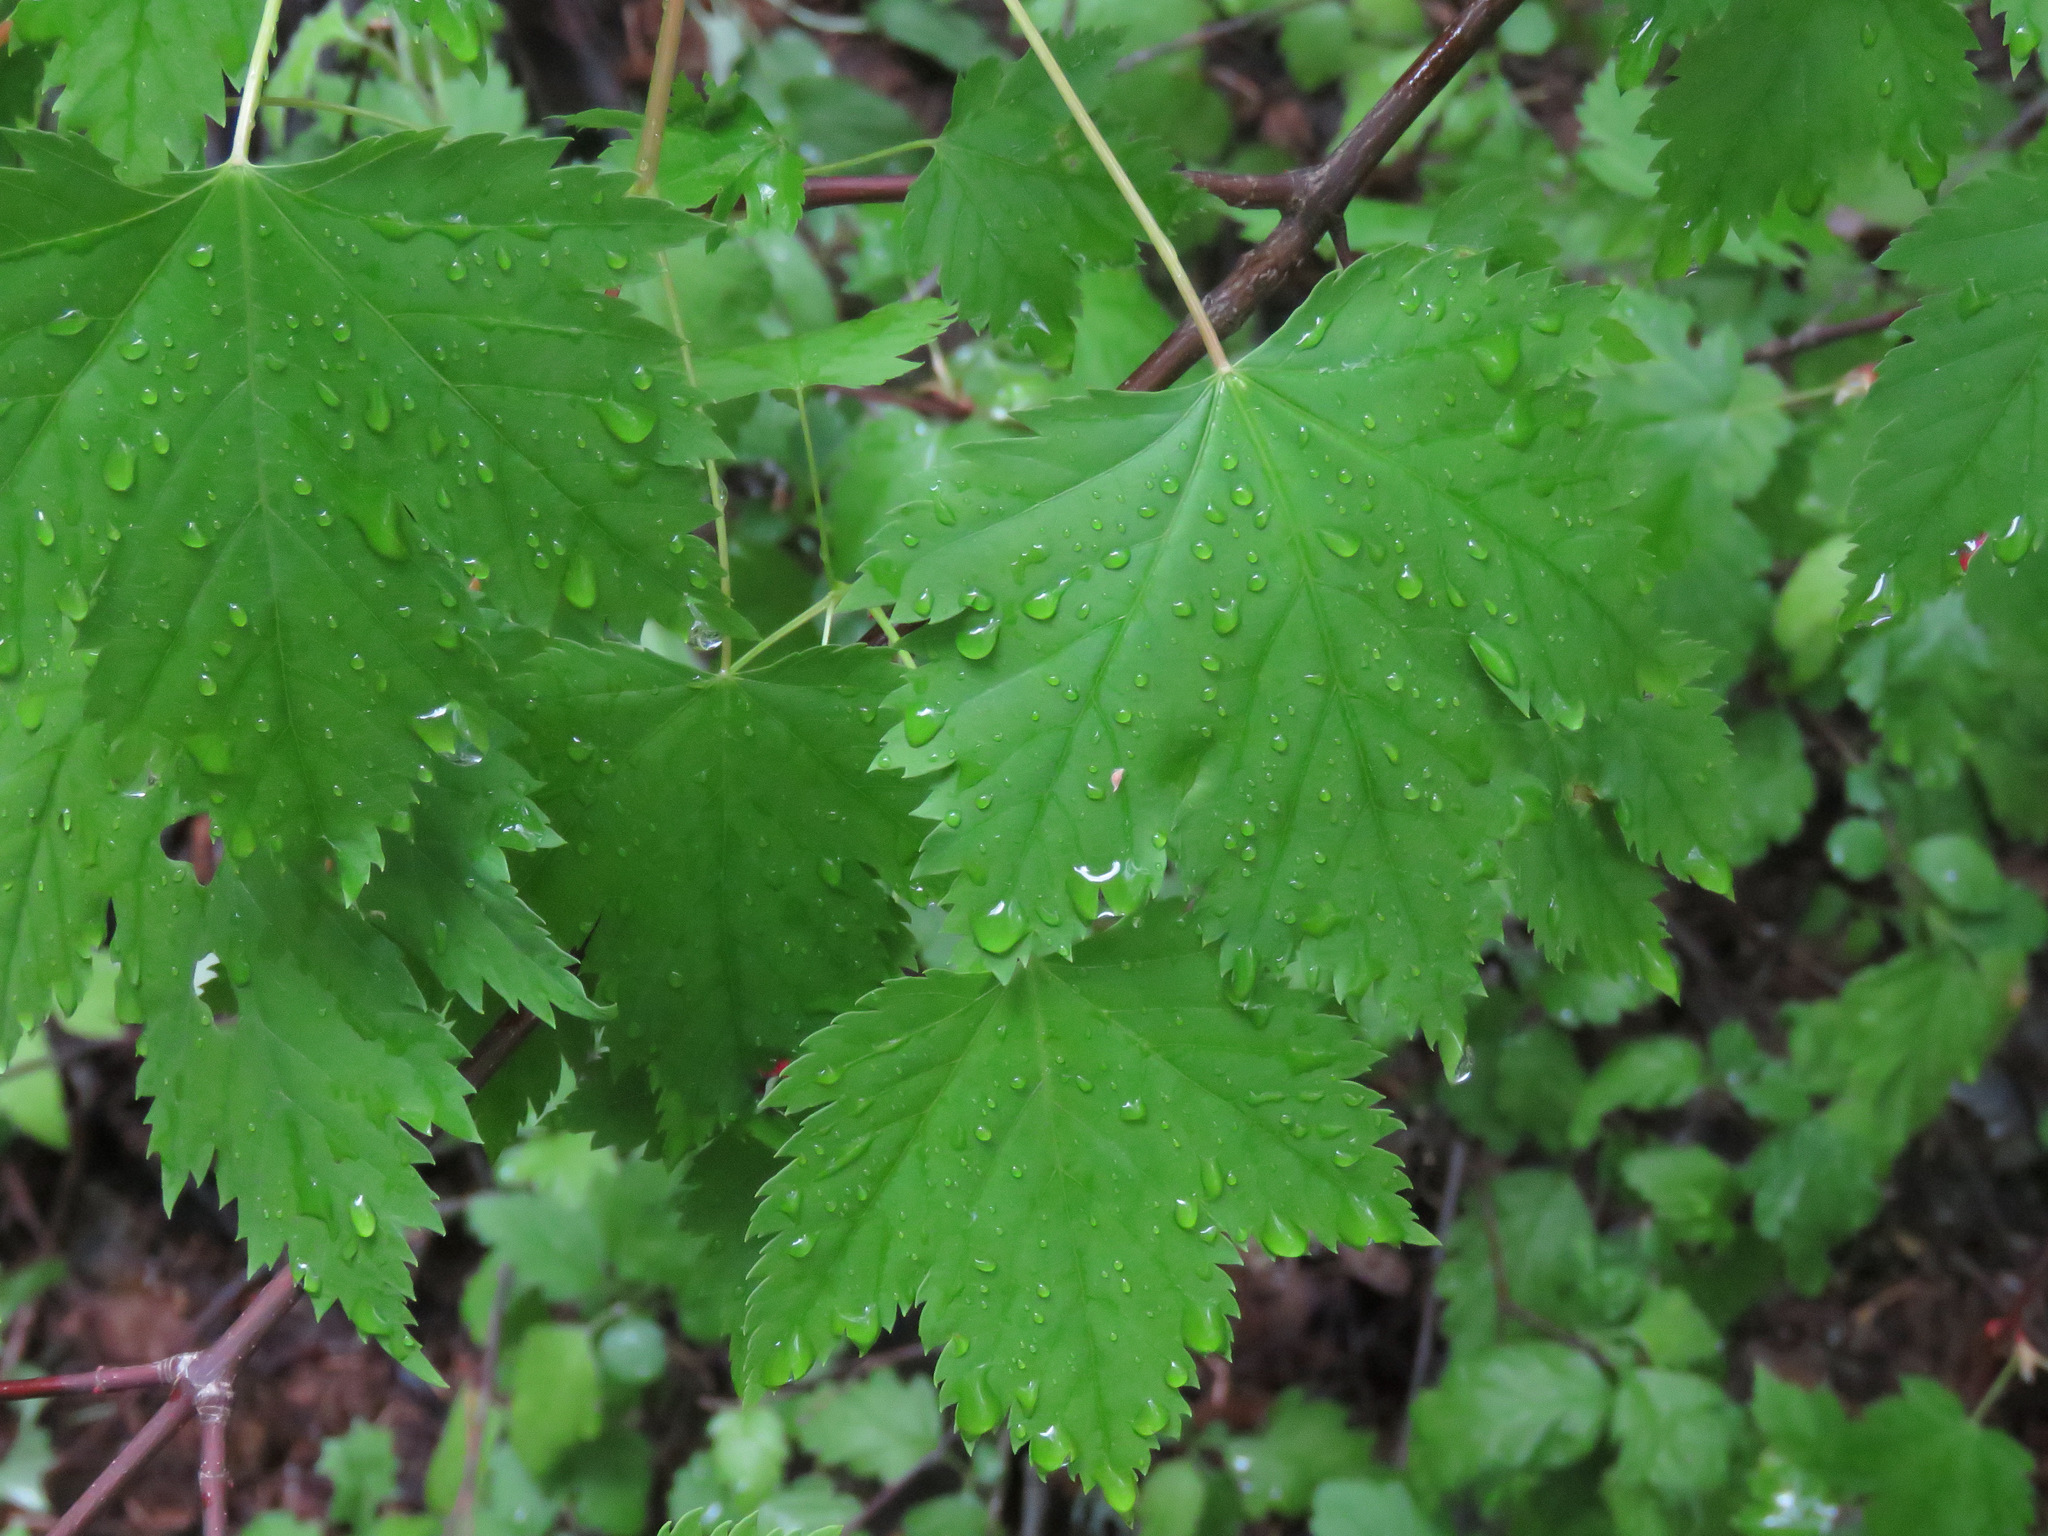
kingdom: Plantae
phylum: Tracheophyta
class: Magnoliopsida
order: Sapindales
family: Sapindaceae
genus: Acer
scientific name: Acer glabrum
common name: Rocky mountain maple
